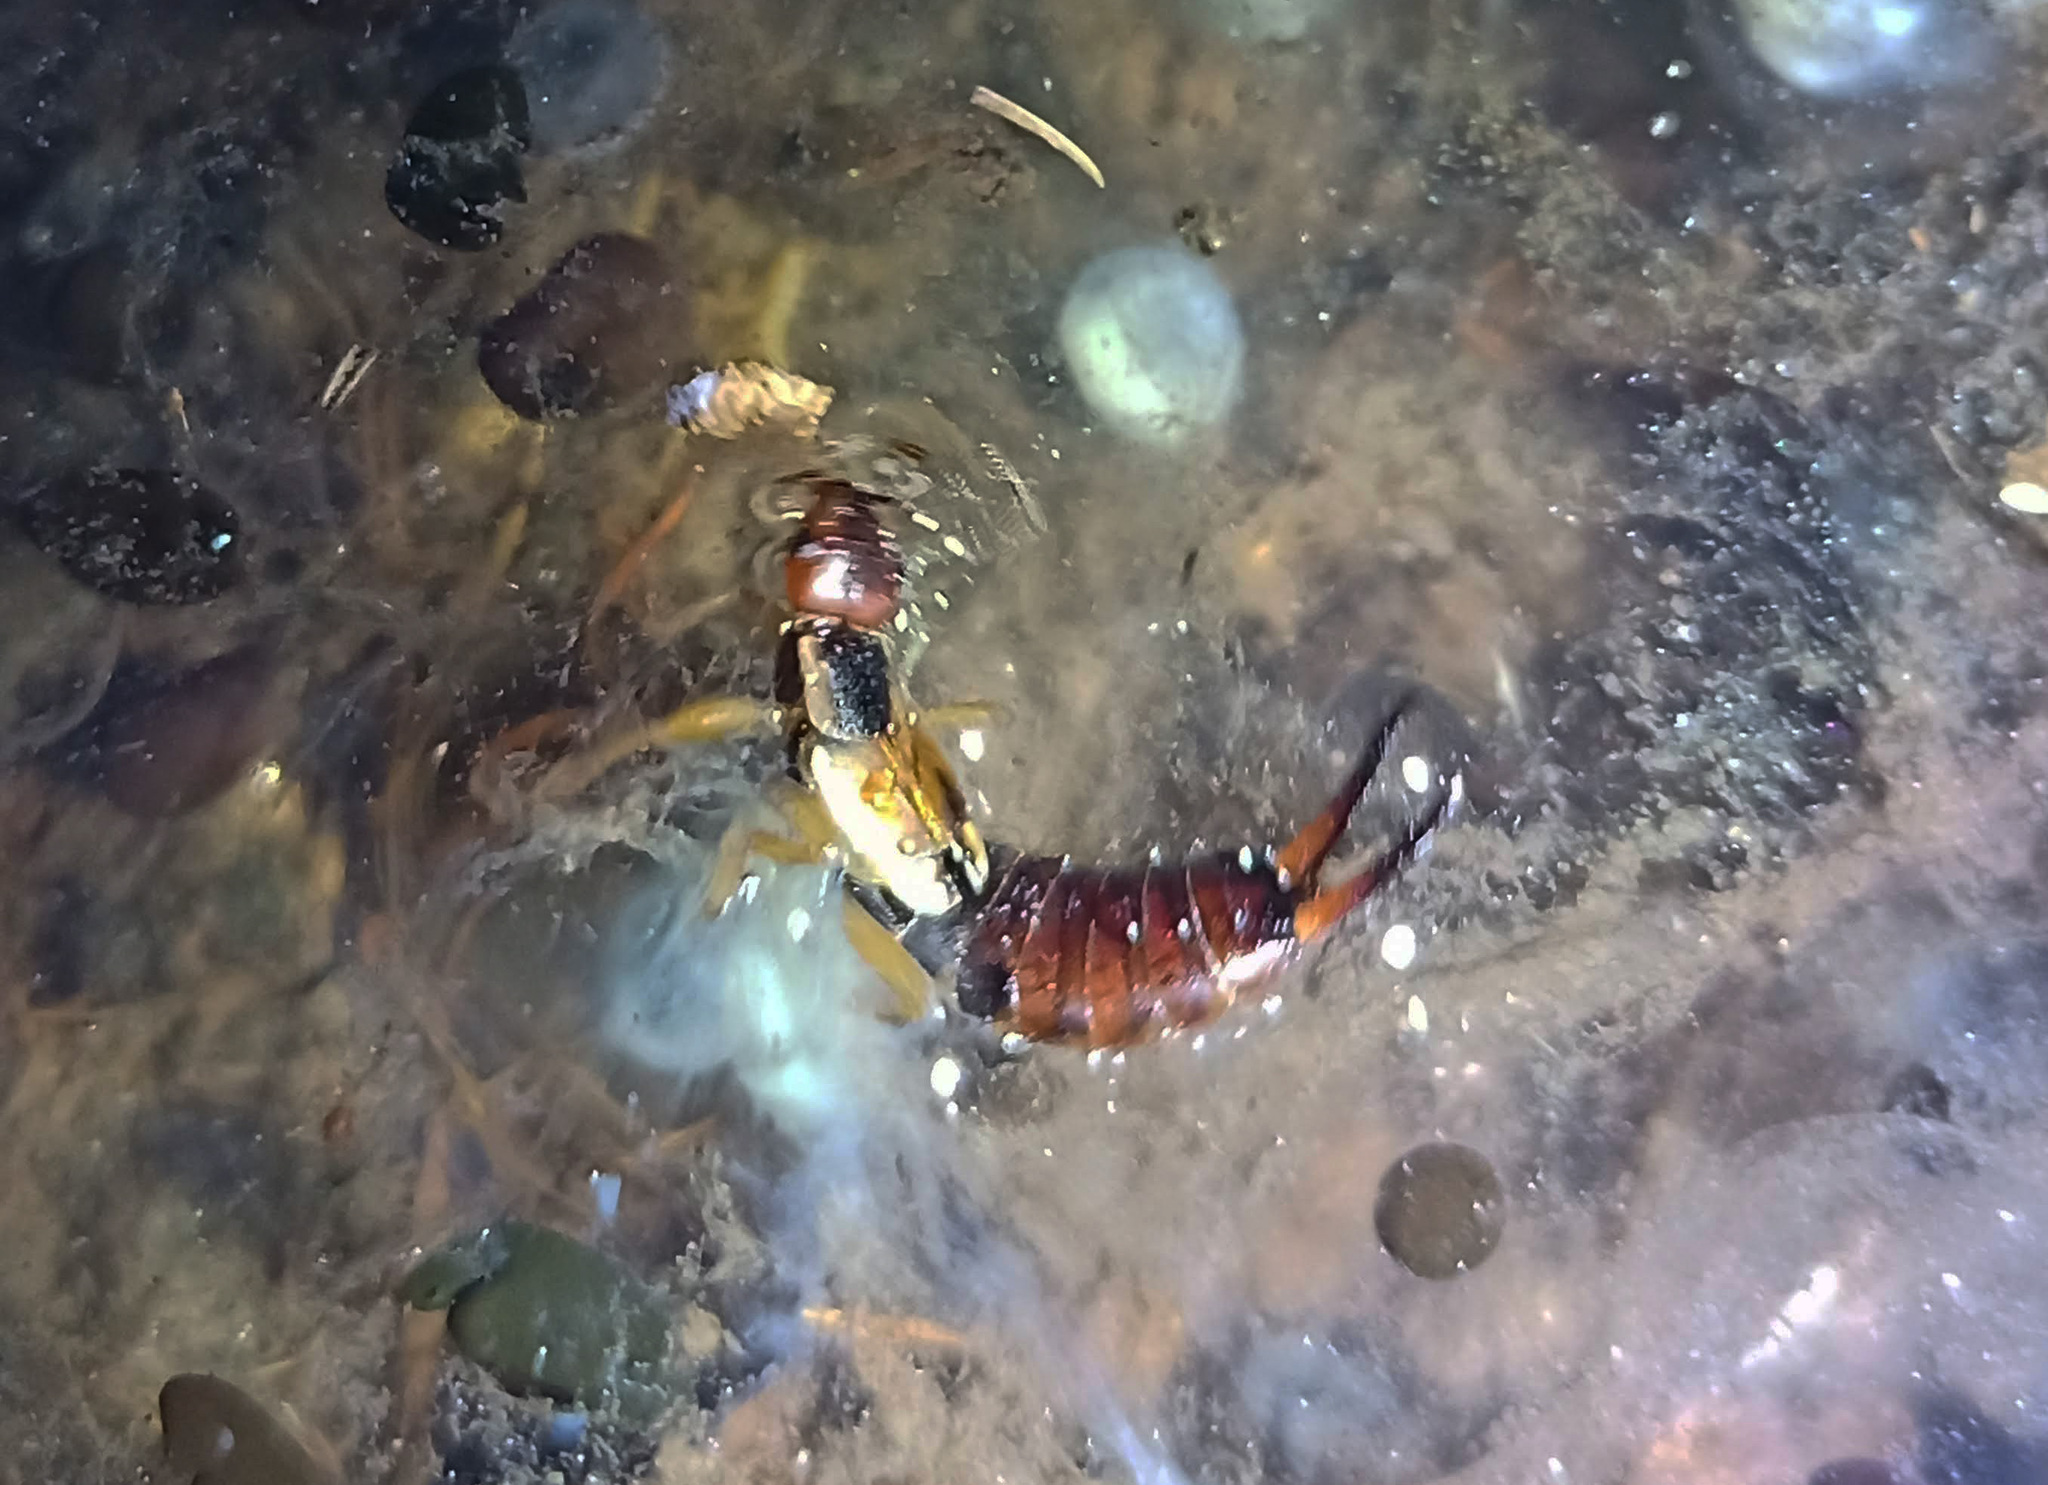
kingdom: Animalia
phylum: Arthropoda
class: Insecta
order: Dermaptera
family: Forficulidae
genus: Forficula
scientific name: Forficula dentata
